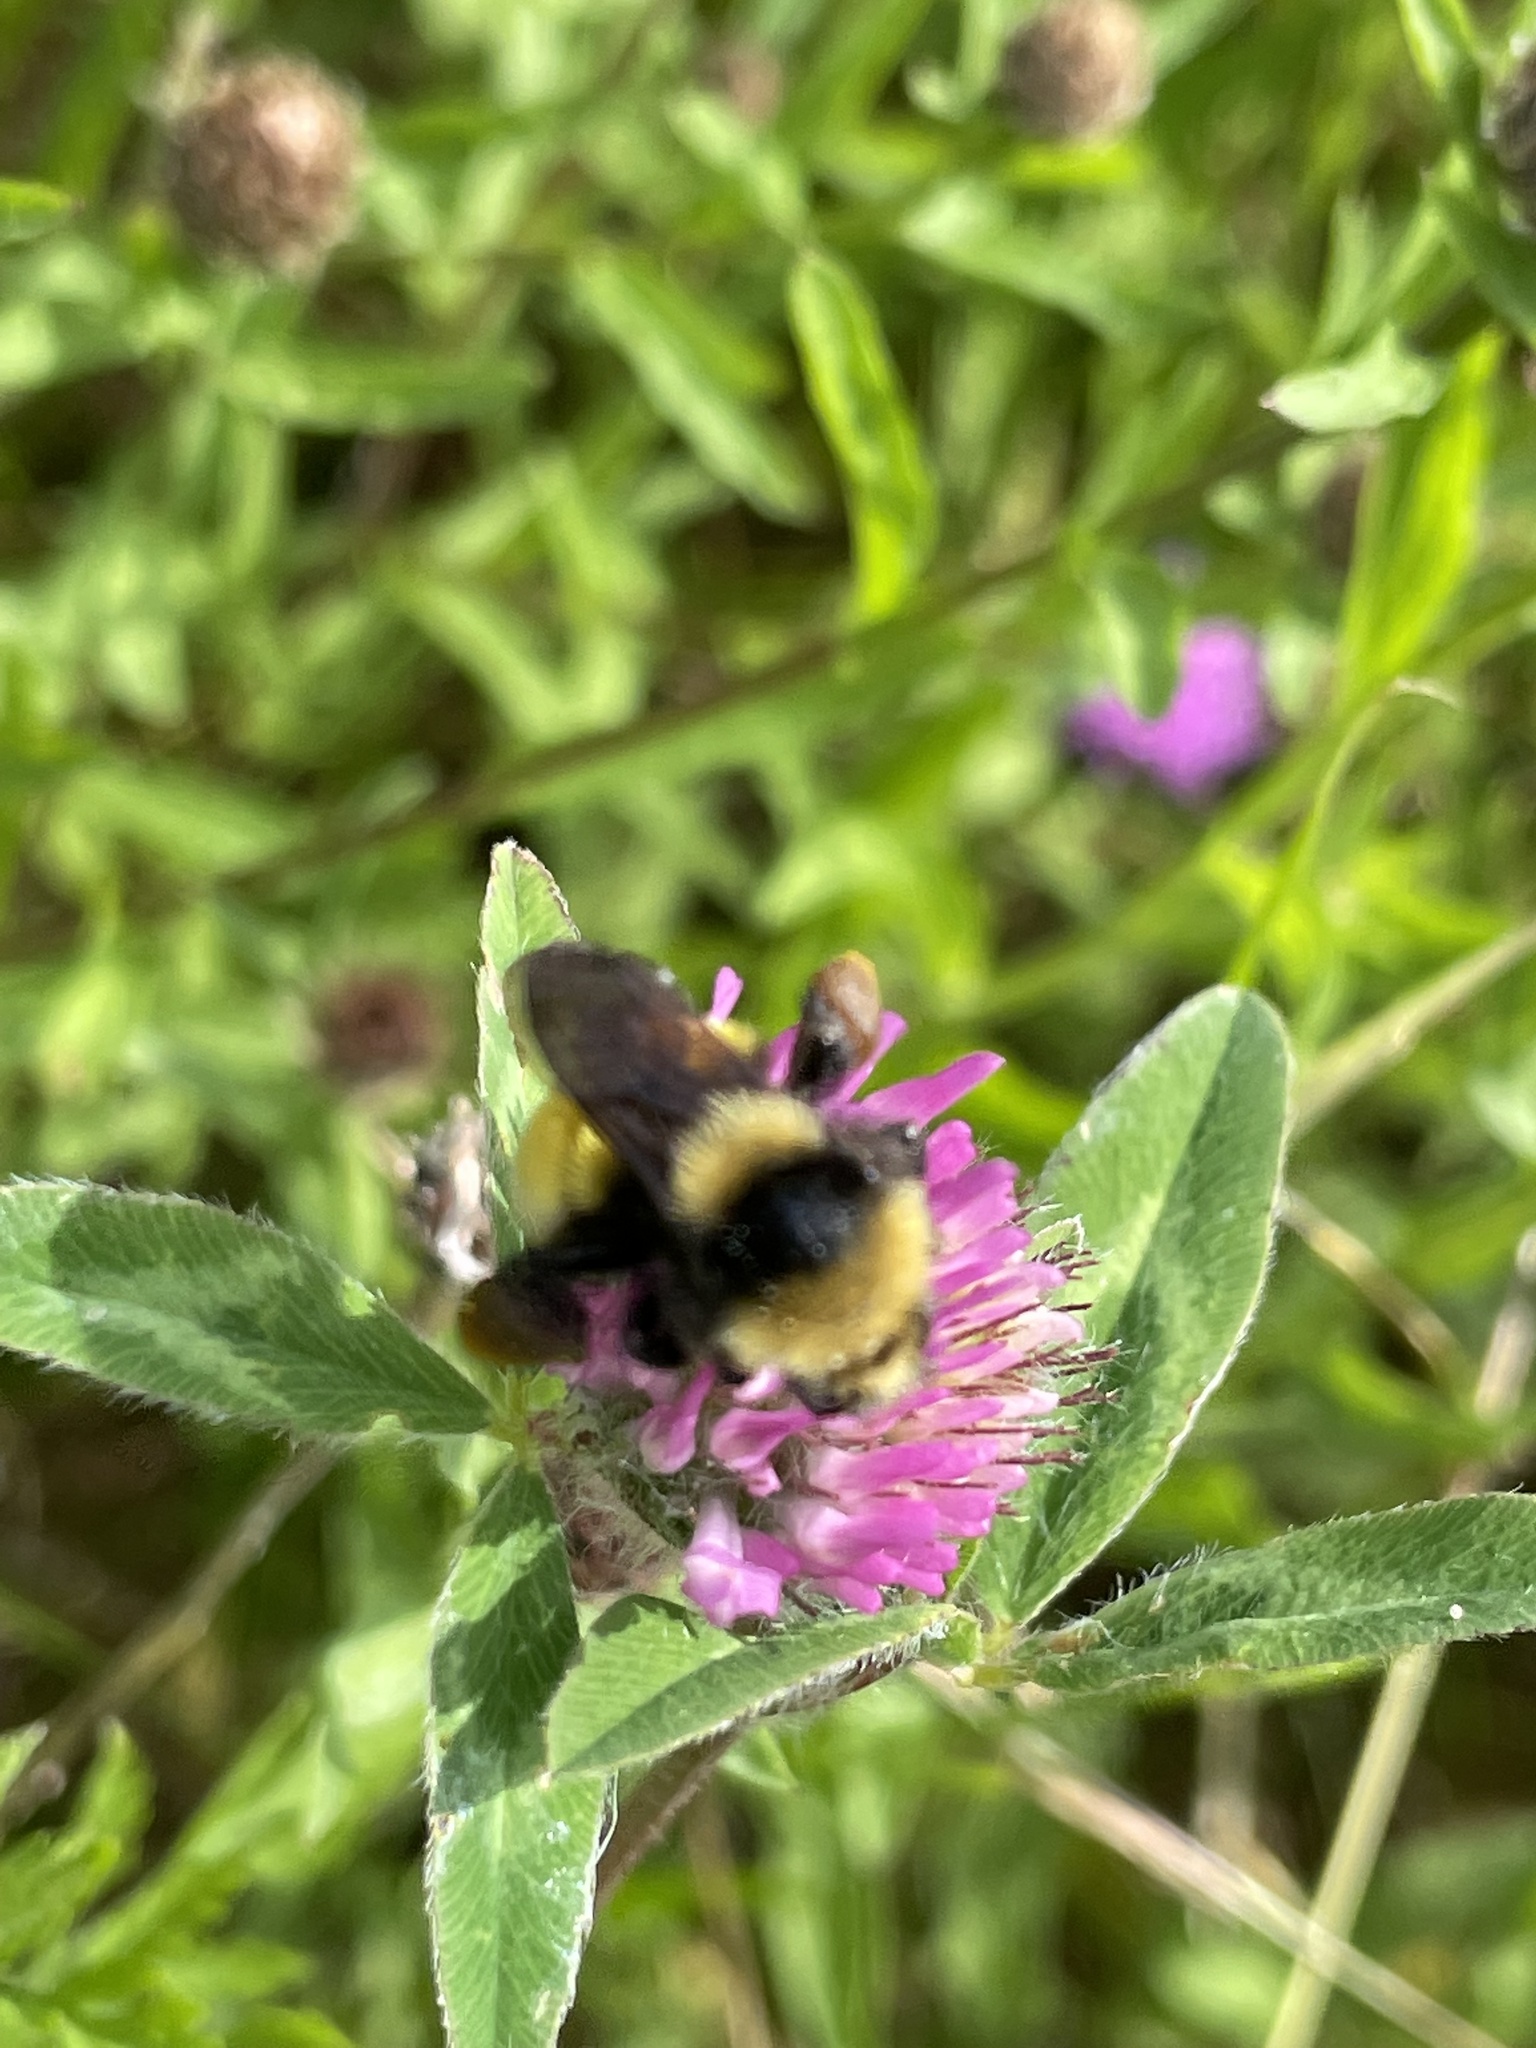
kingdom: Animalia
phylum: Arthropoda
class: Insecta
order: Hymenoptera
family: Apidae
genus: Bombus
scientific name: Bombus borealis
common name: Northern amber bumble bee
